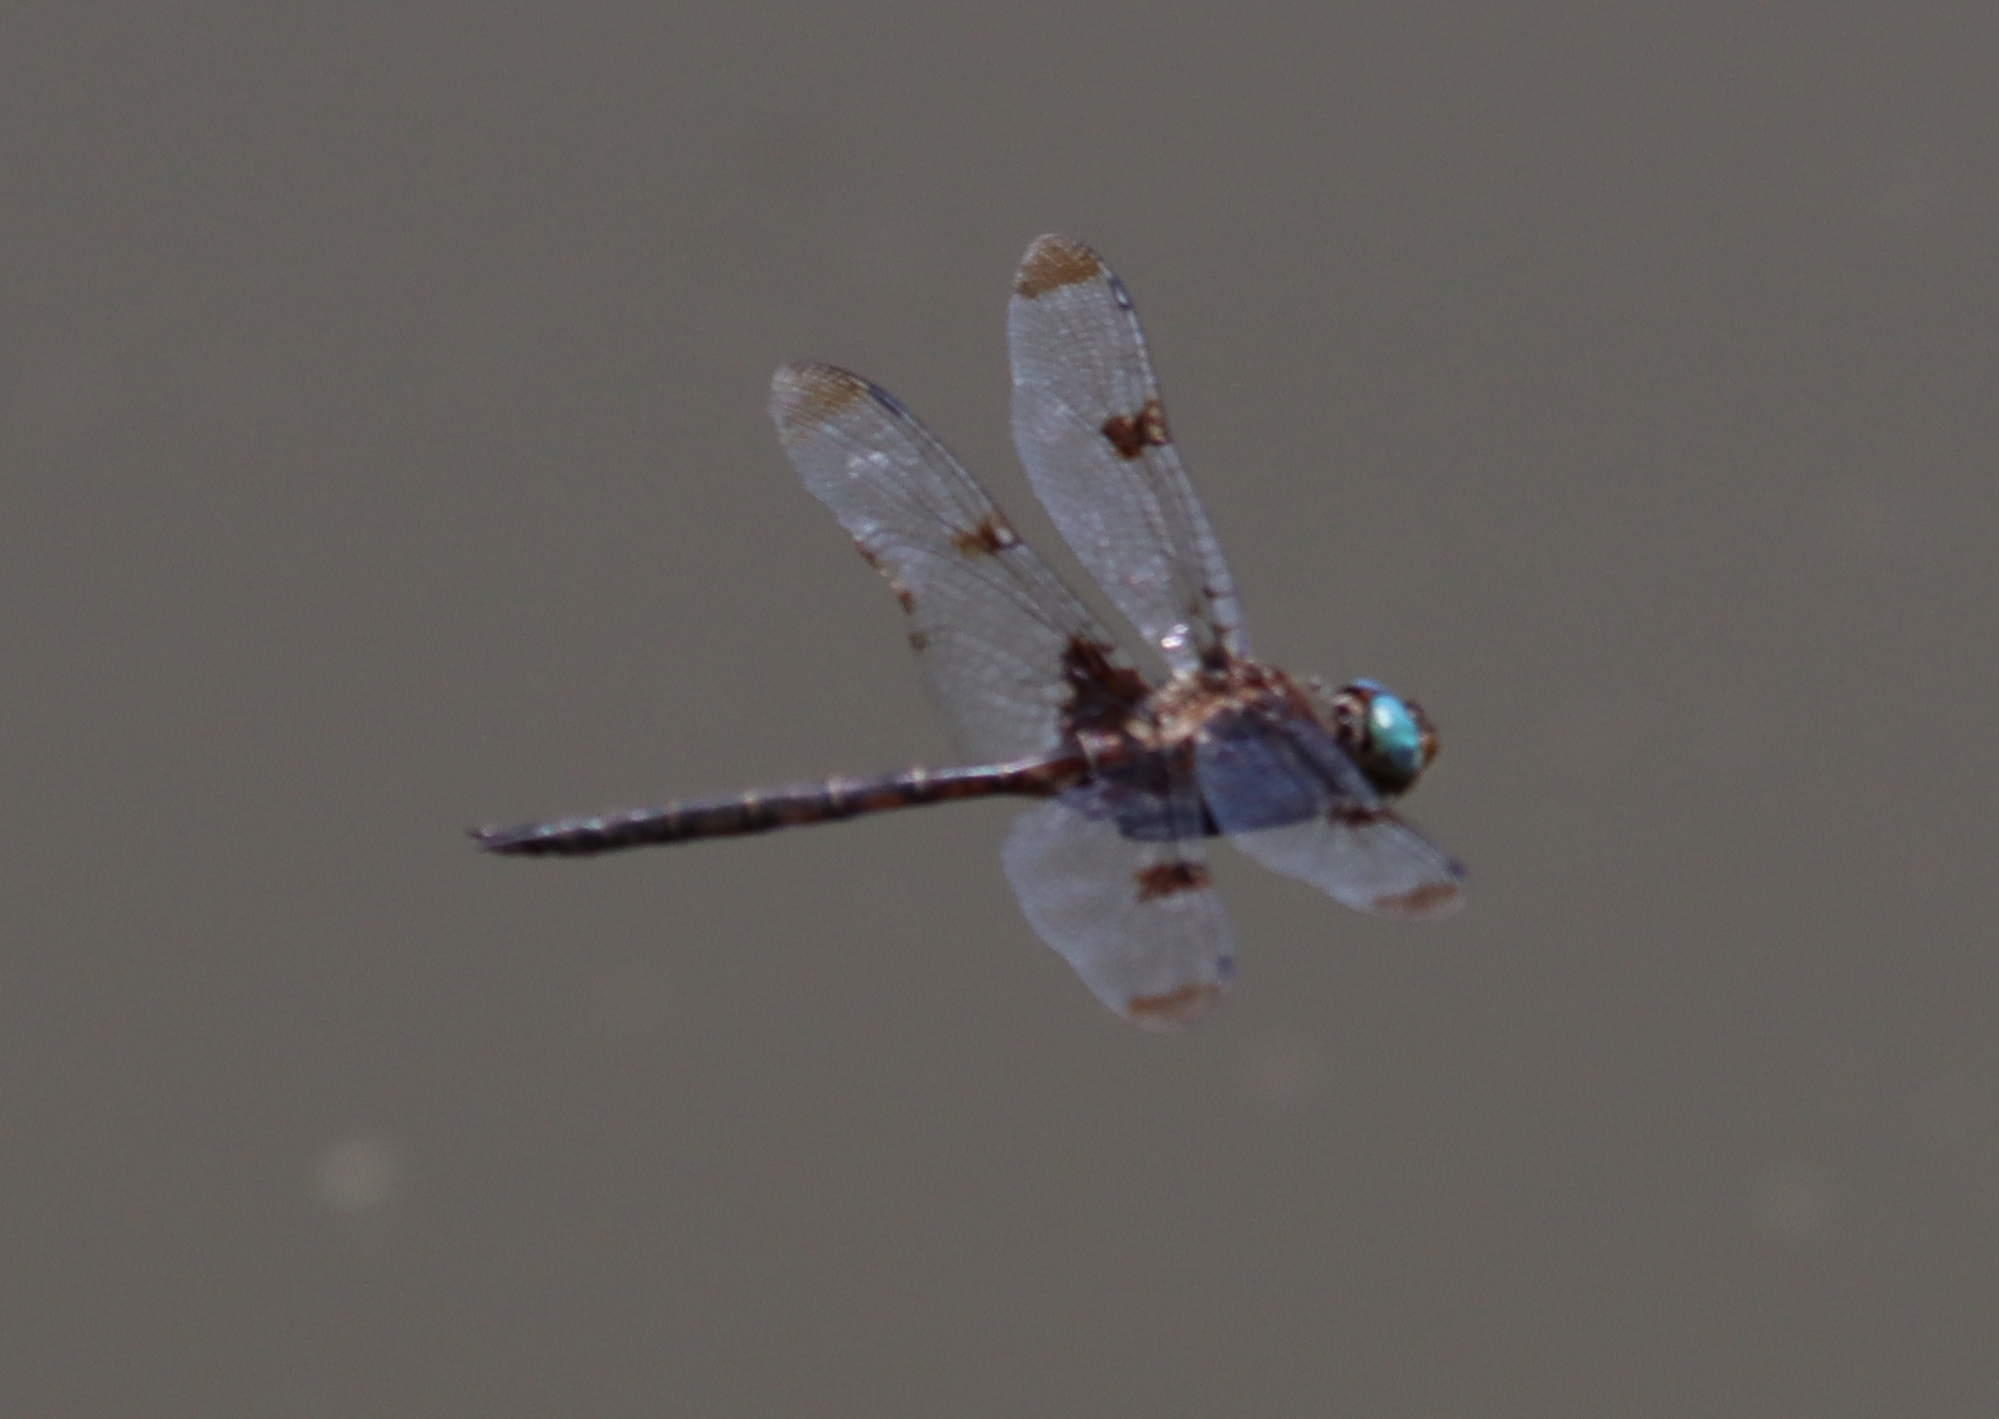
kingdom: Animalia
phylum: Arthropoda
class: Insecta
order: Odonata
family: Corduliidae
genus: Epitheca
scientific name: Epitheca princeps
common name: Prince baskettail
